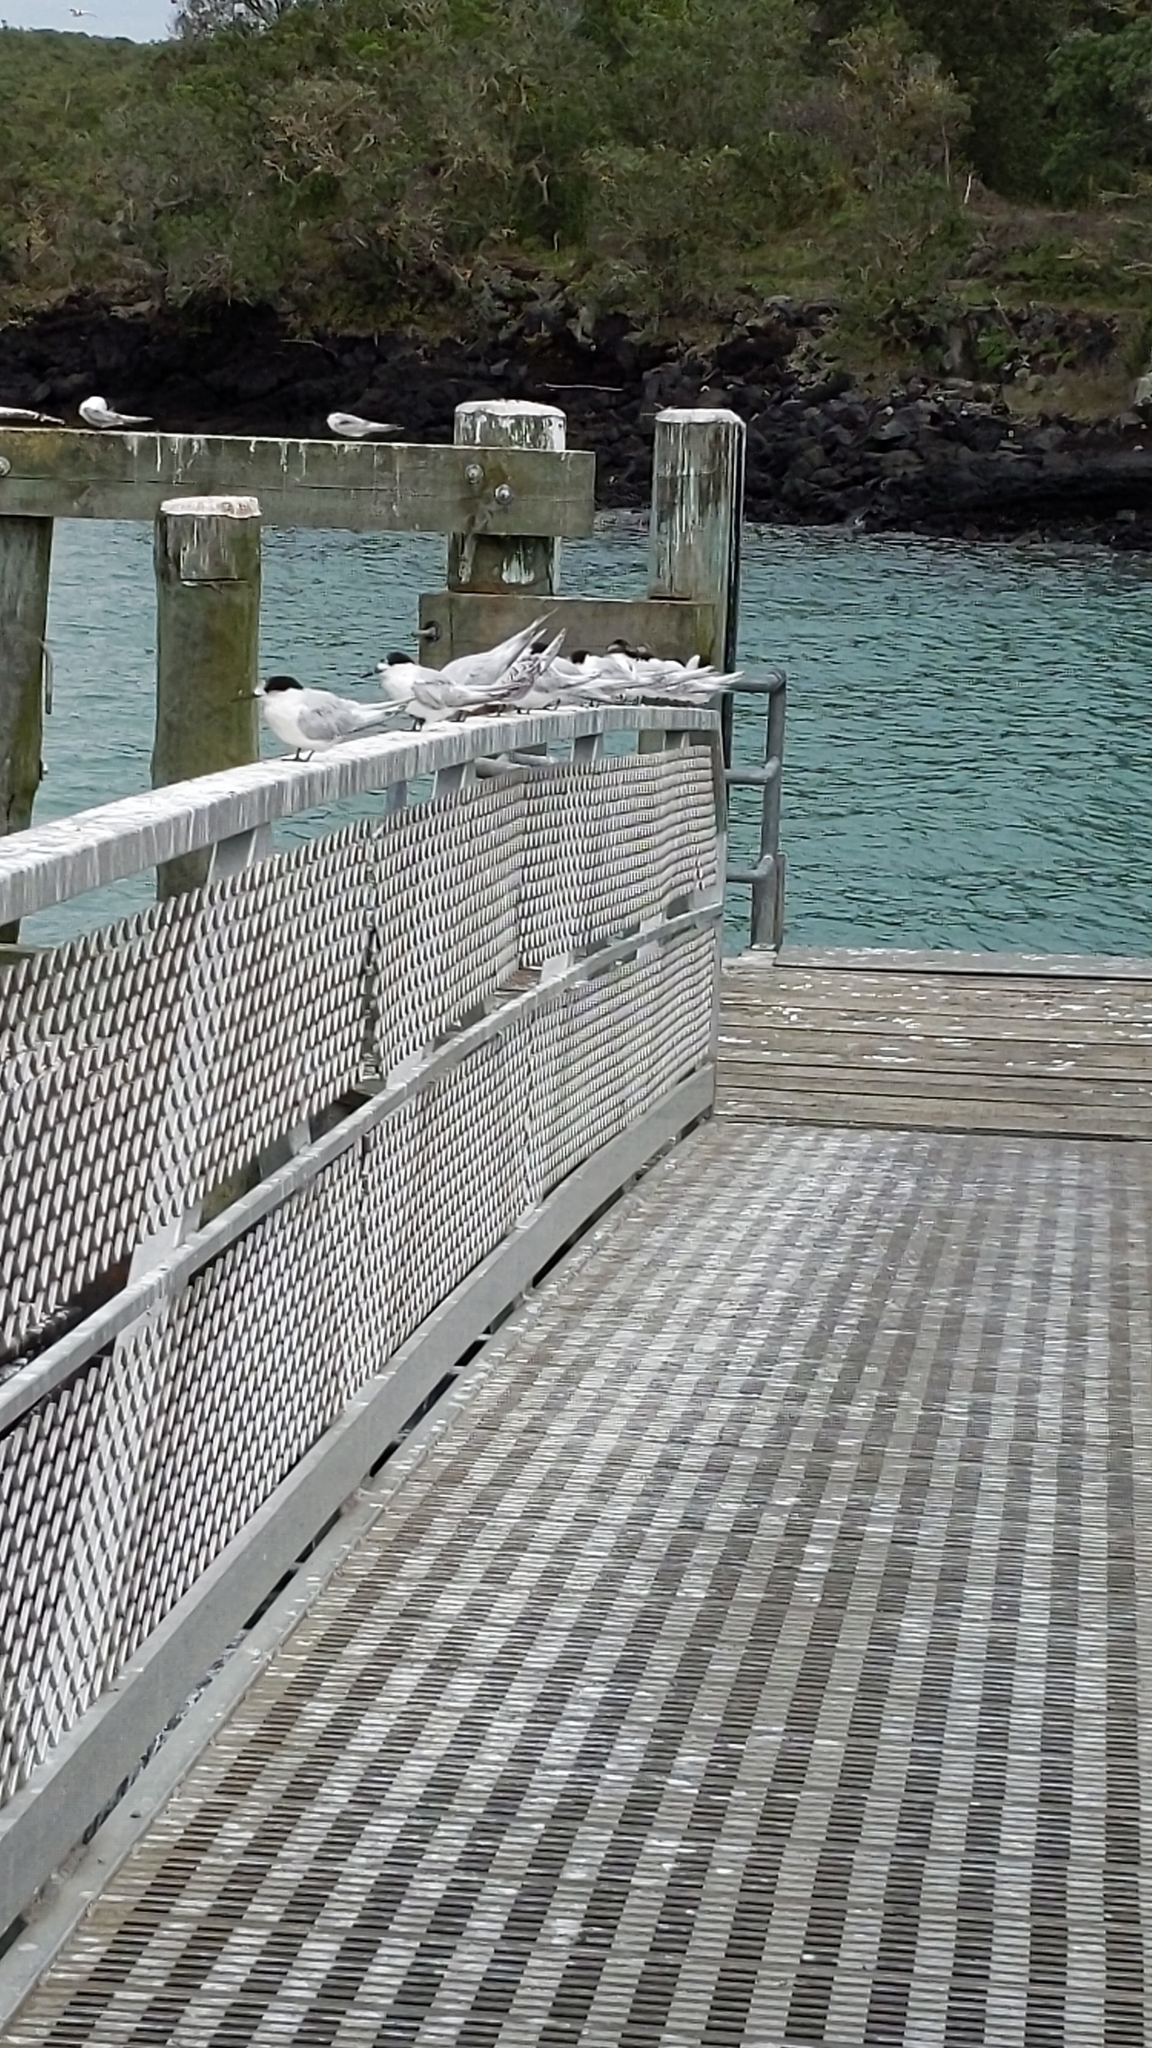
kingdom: Animalia
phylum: Chordata
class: Aves
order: Charadriiformes
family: Laridae
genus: Sterna
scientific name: Sterna striata
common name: White-fronted tern
